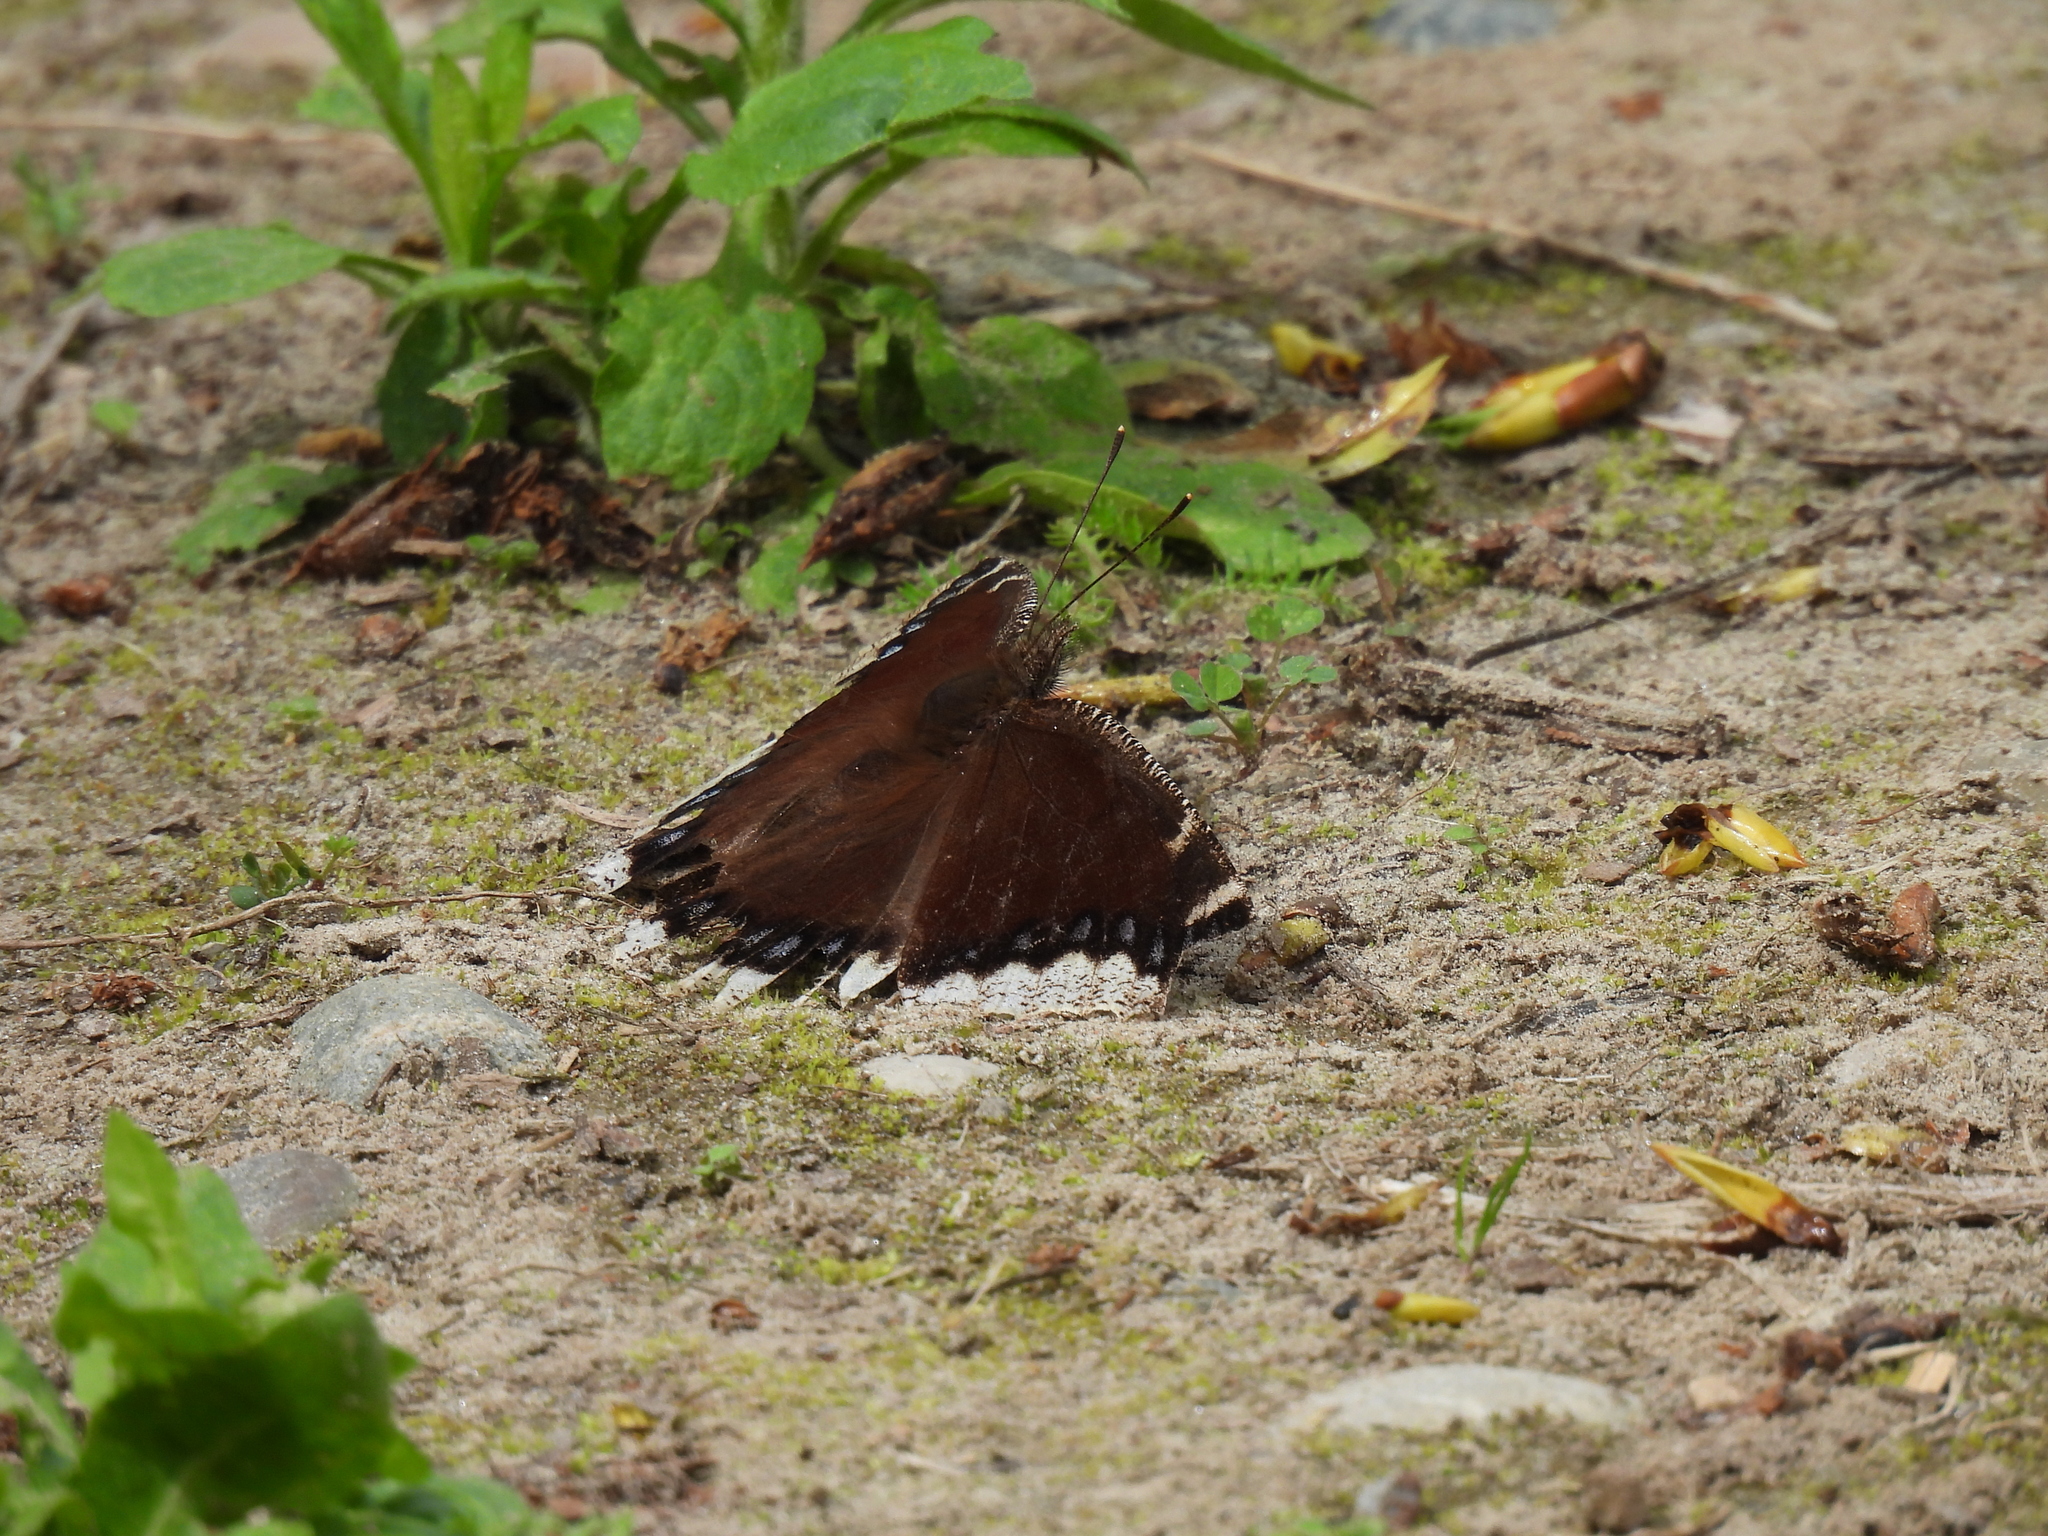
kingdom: Animalia
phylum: Arthropoda
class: Insecta
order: Lepidoptera
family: Nymphalidae
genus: Nymphalis
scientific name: Nymphalis antiopa
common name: Camberwell beauty
